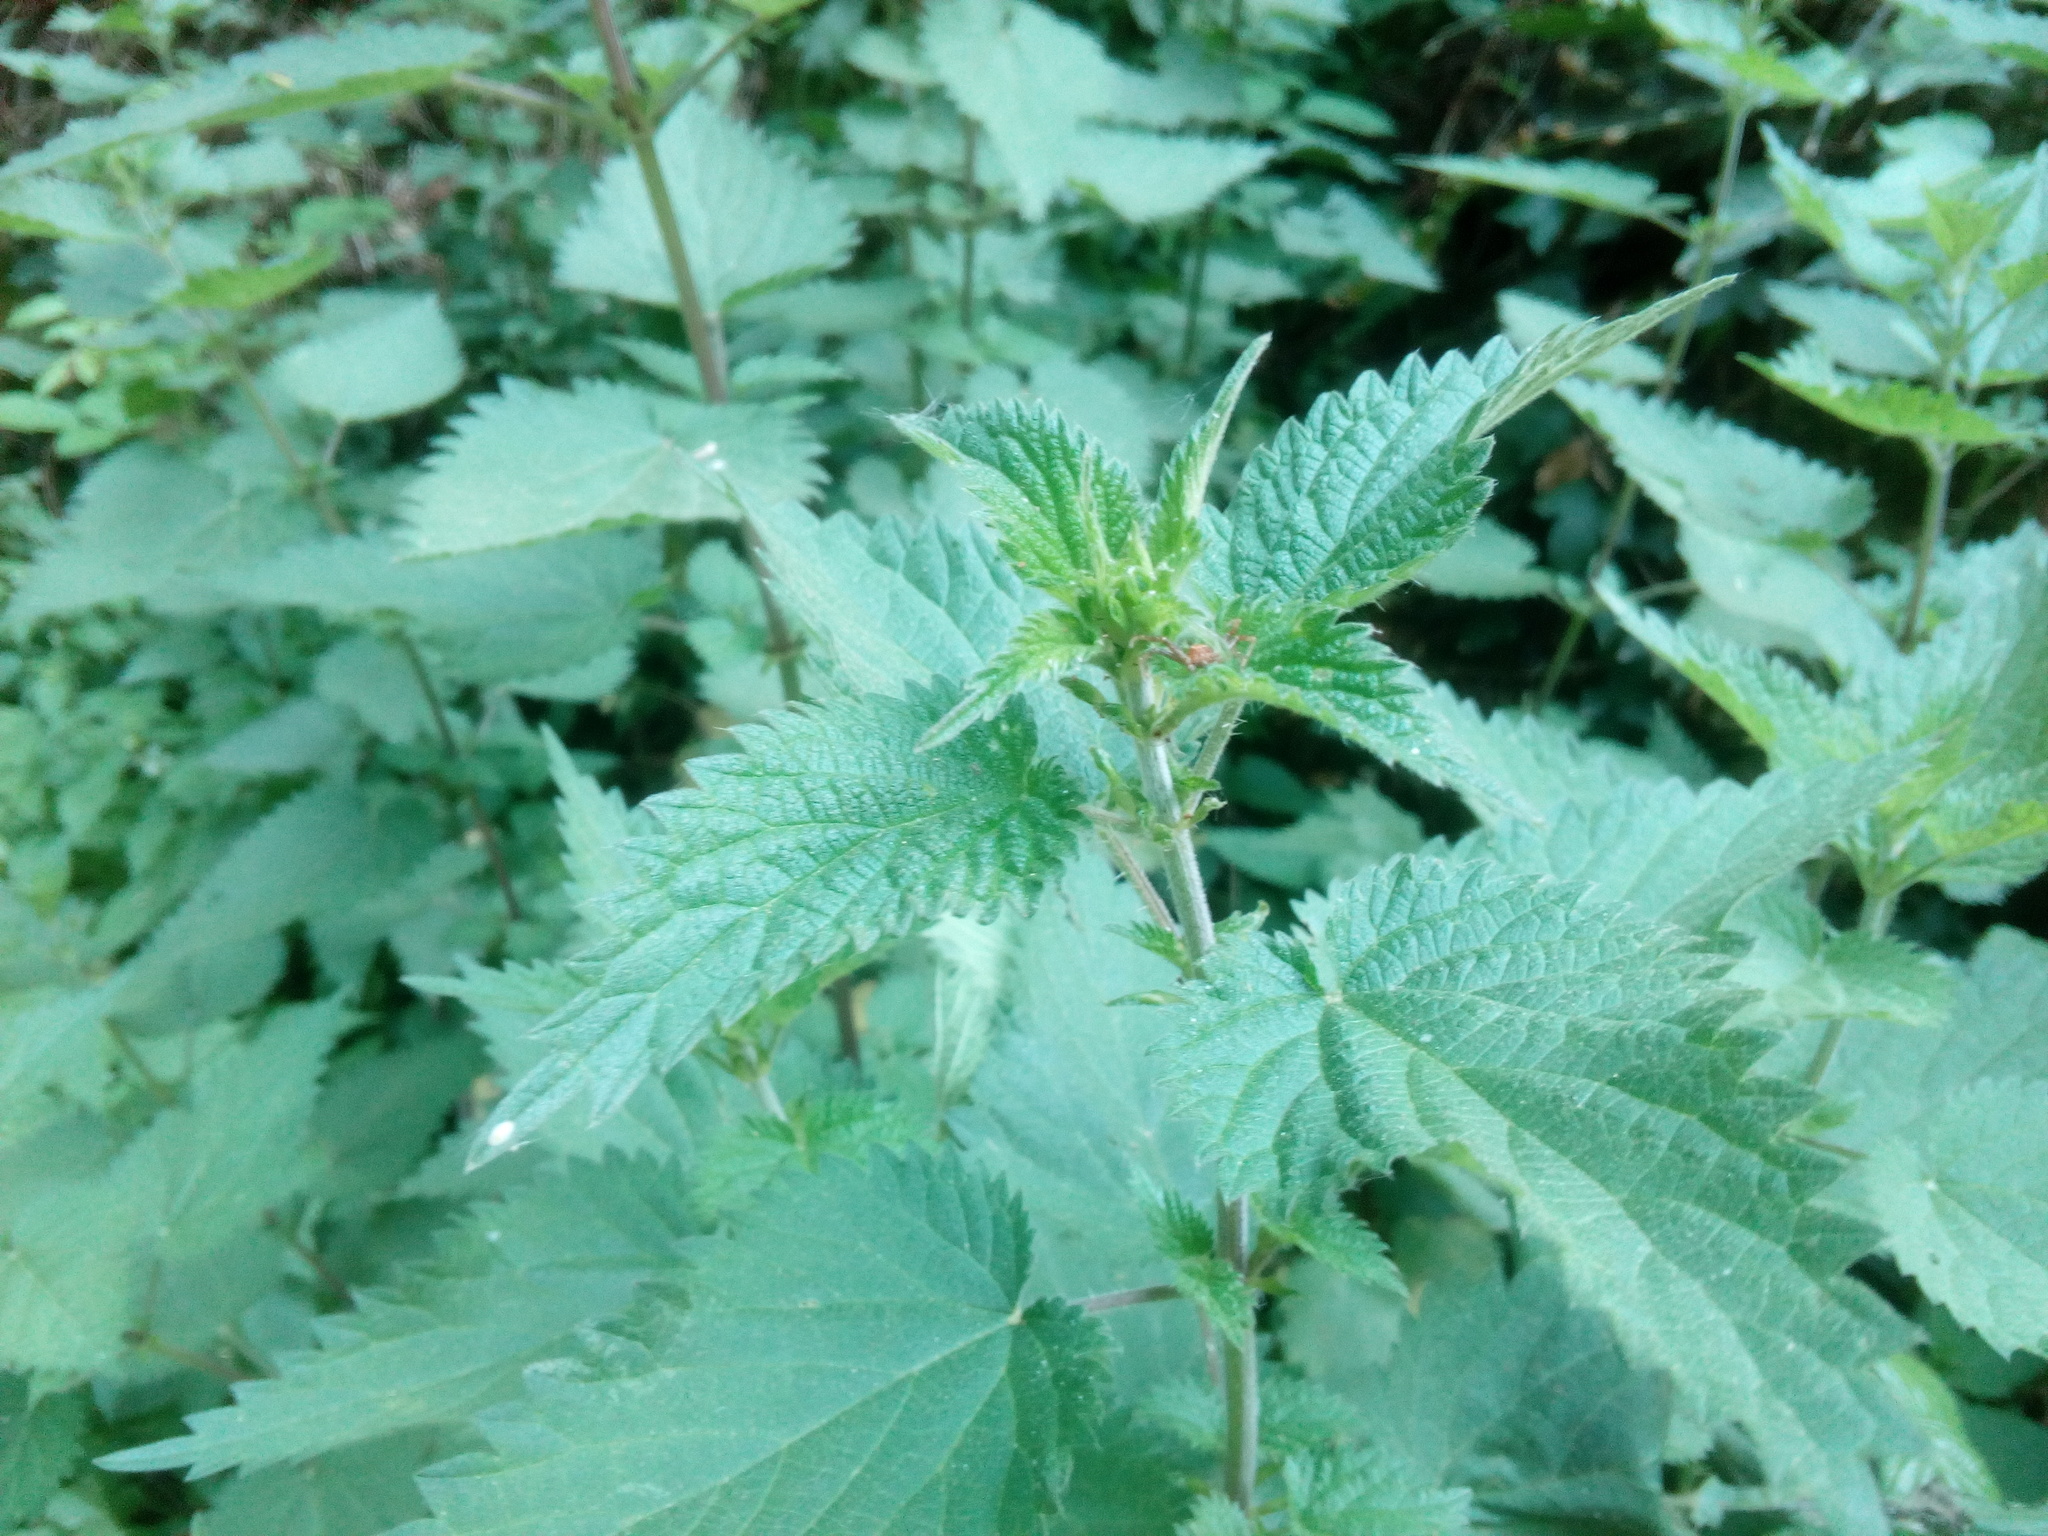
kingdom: Plantae
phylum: Tracheophyta
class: Magnoliopsida
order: Rosales
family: Urticaceae
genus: Urtica
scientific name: Urtica dioica
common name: Common nettle
